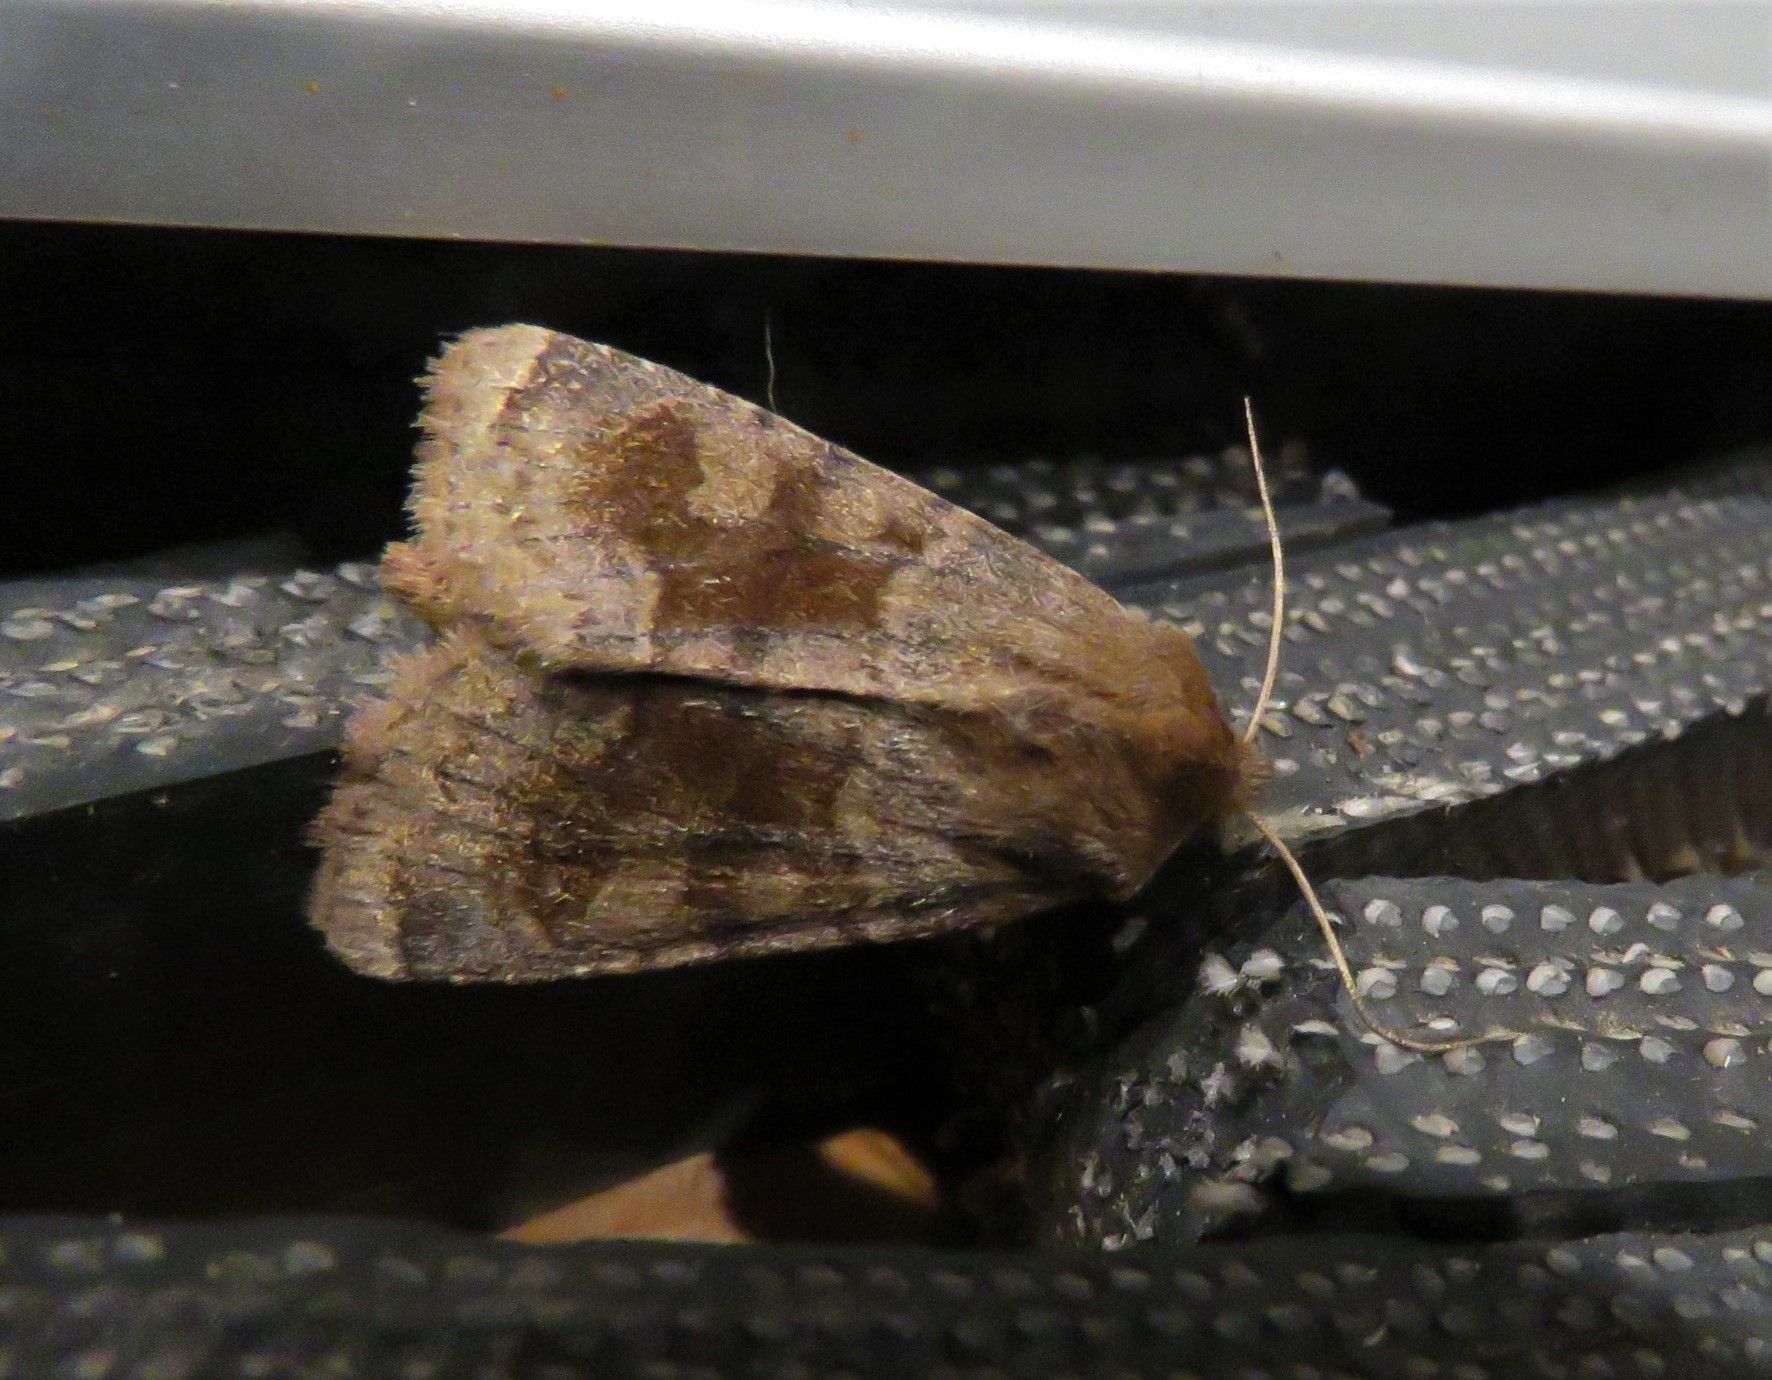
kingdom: Animalia
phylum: Arthropoda
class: Insecta
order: Lepidoptera
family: Noctuidae
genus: Nephelodes
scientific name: Nephelodes minians
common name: Bronzed cutworm
